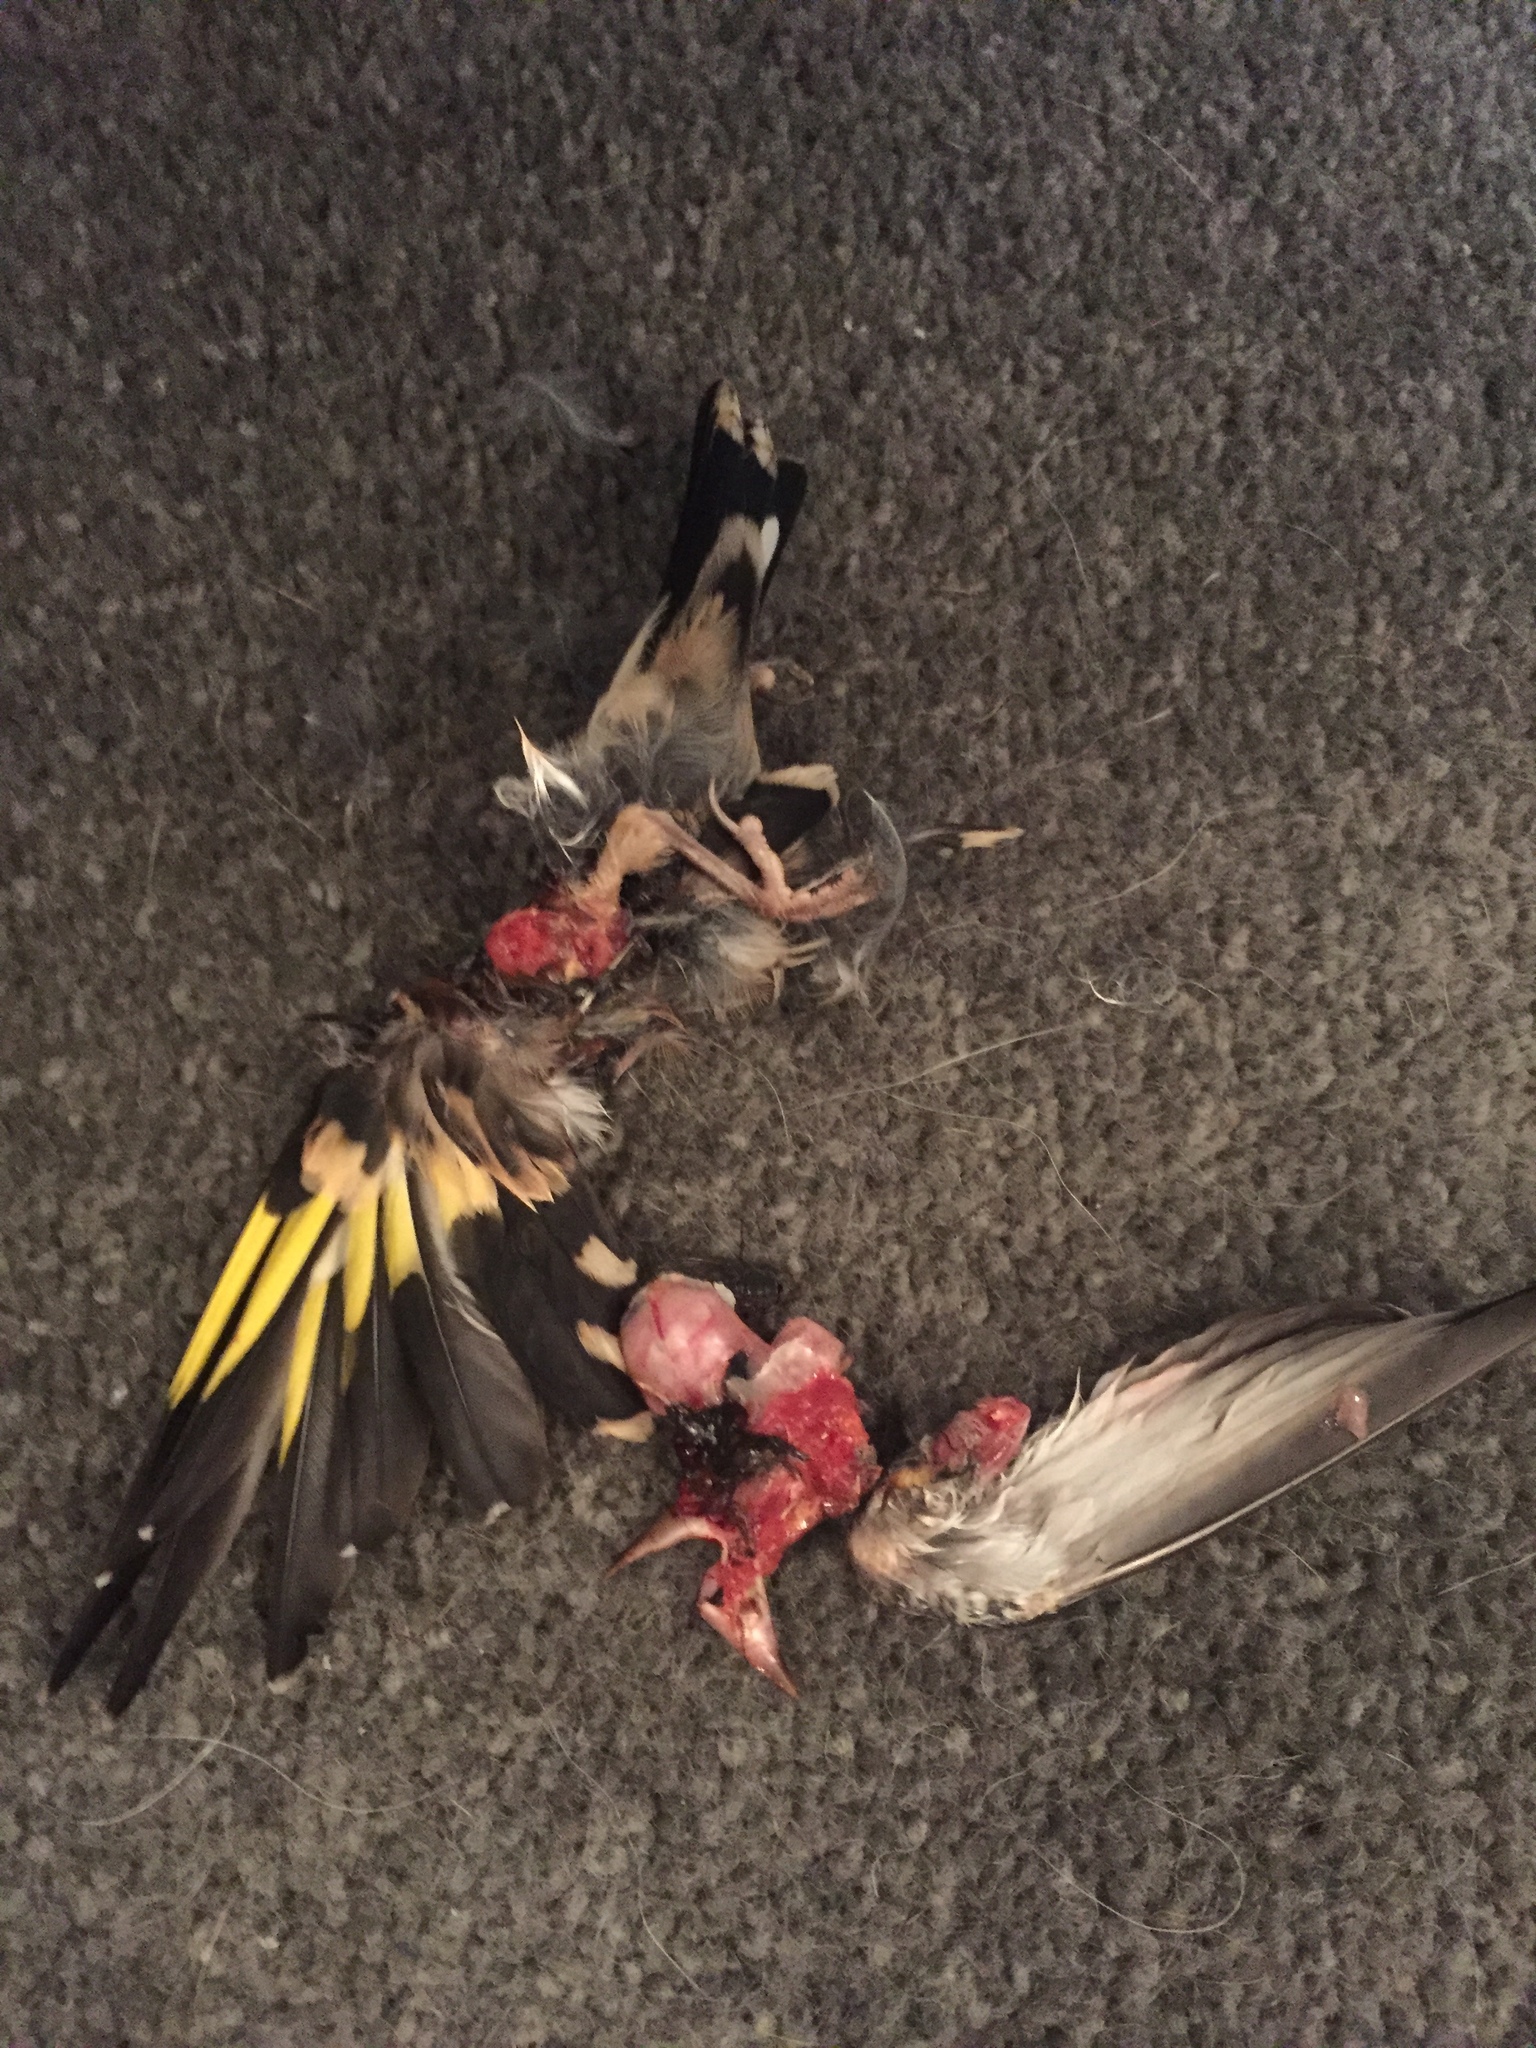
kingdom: Animalia
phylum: Chordata
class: Aves
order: Passeriformes
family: Fringillidae
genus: Carduelis
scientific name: Carduelis carduelis
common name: European goldfinch
